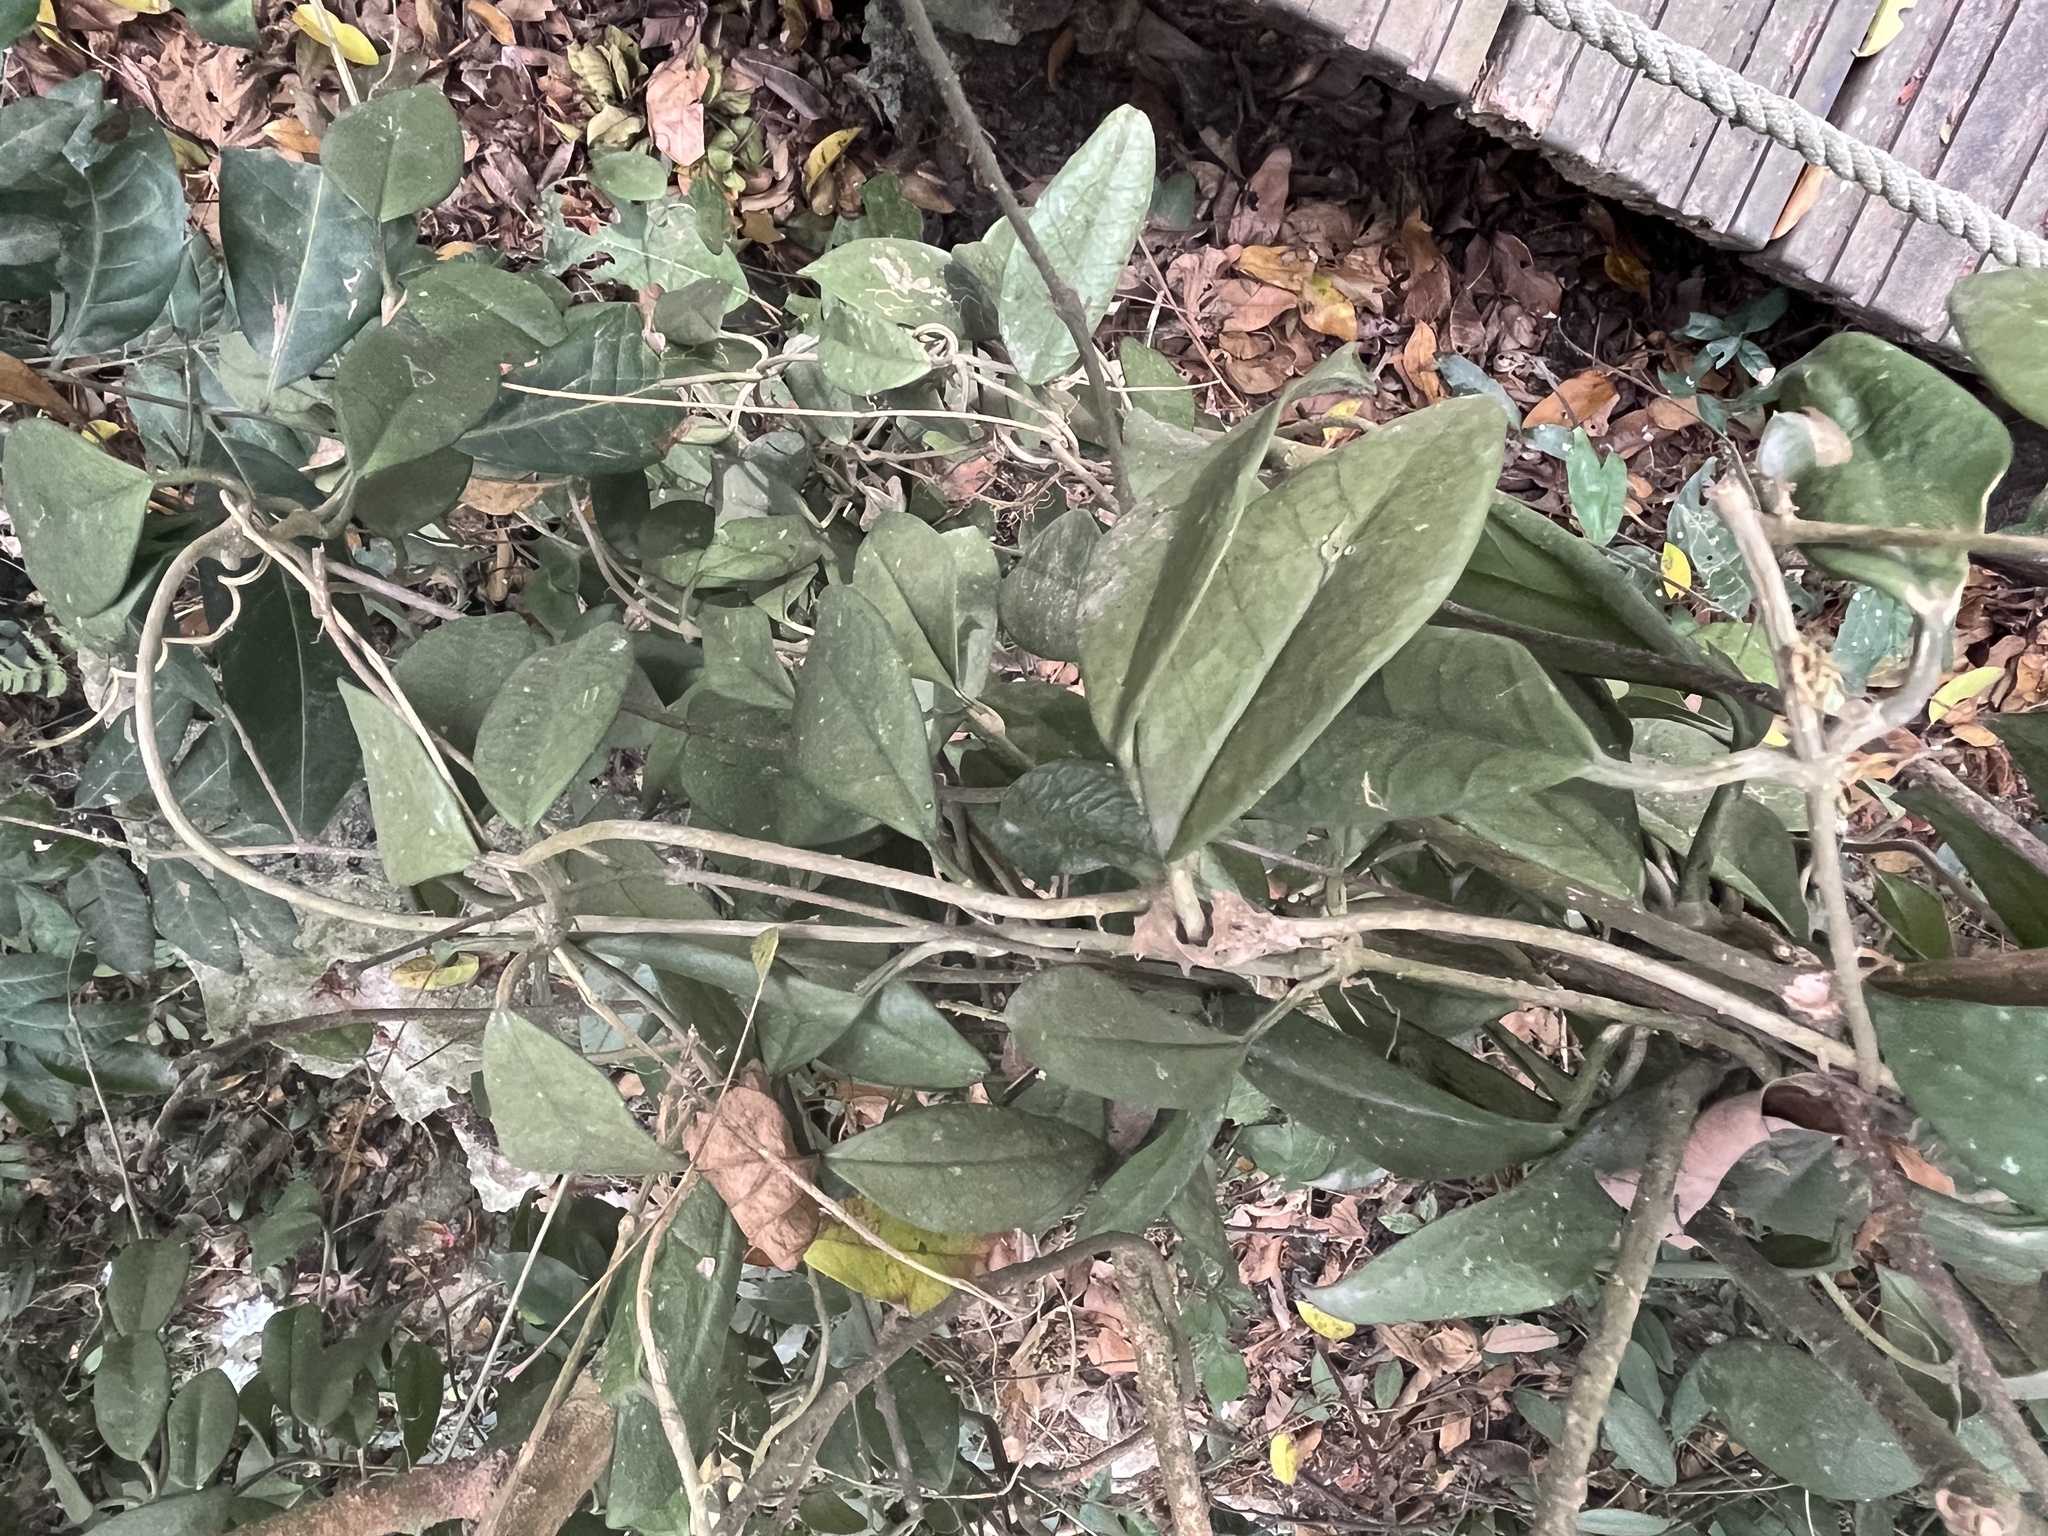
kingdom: Plantae
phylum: Tracheophyta
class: Magnoliopsida
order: Gentianales
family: Apocynaceae
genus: Hoya
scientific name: Hoya carnosa
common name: Honeyplant
